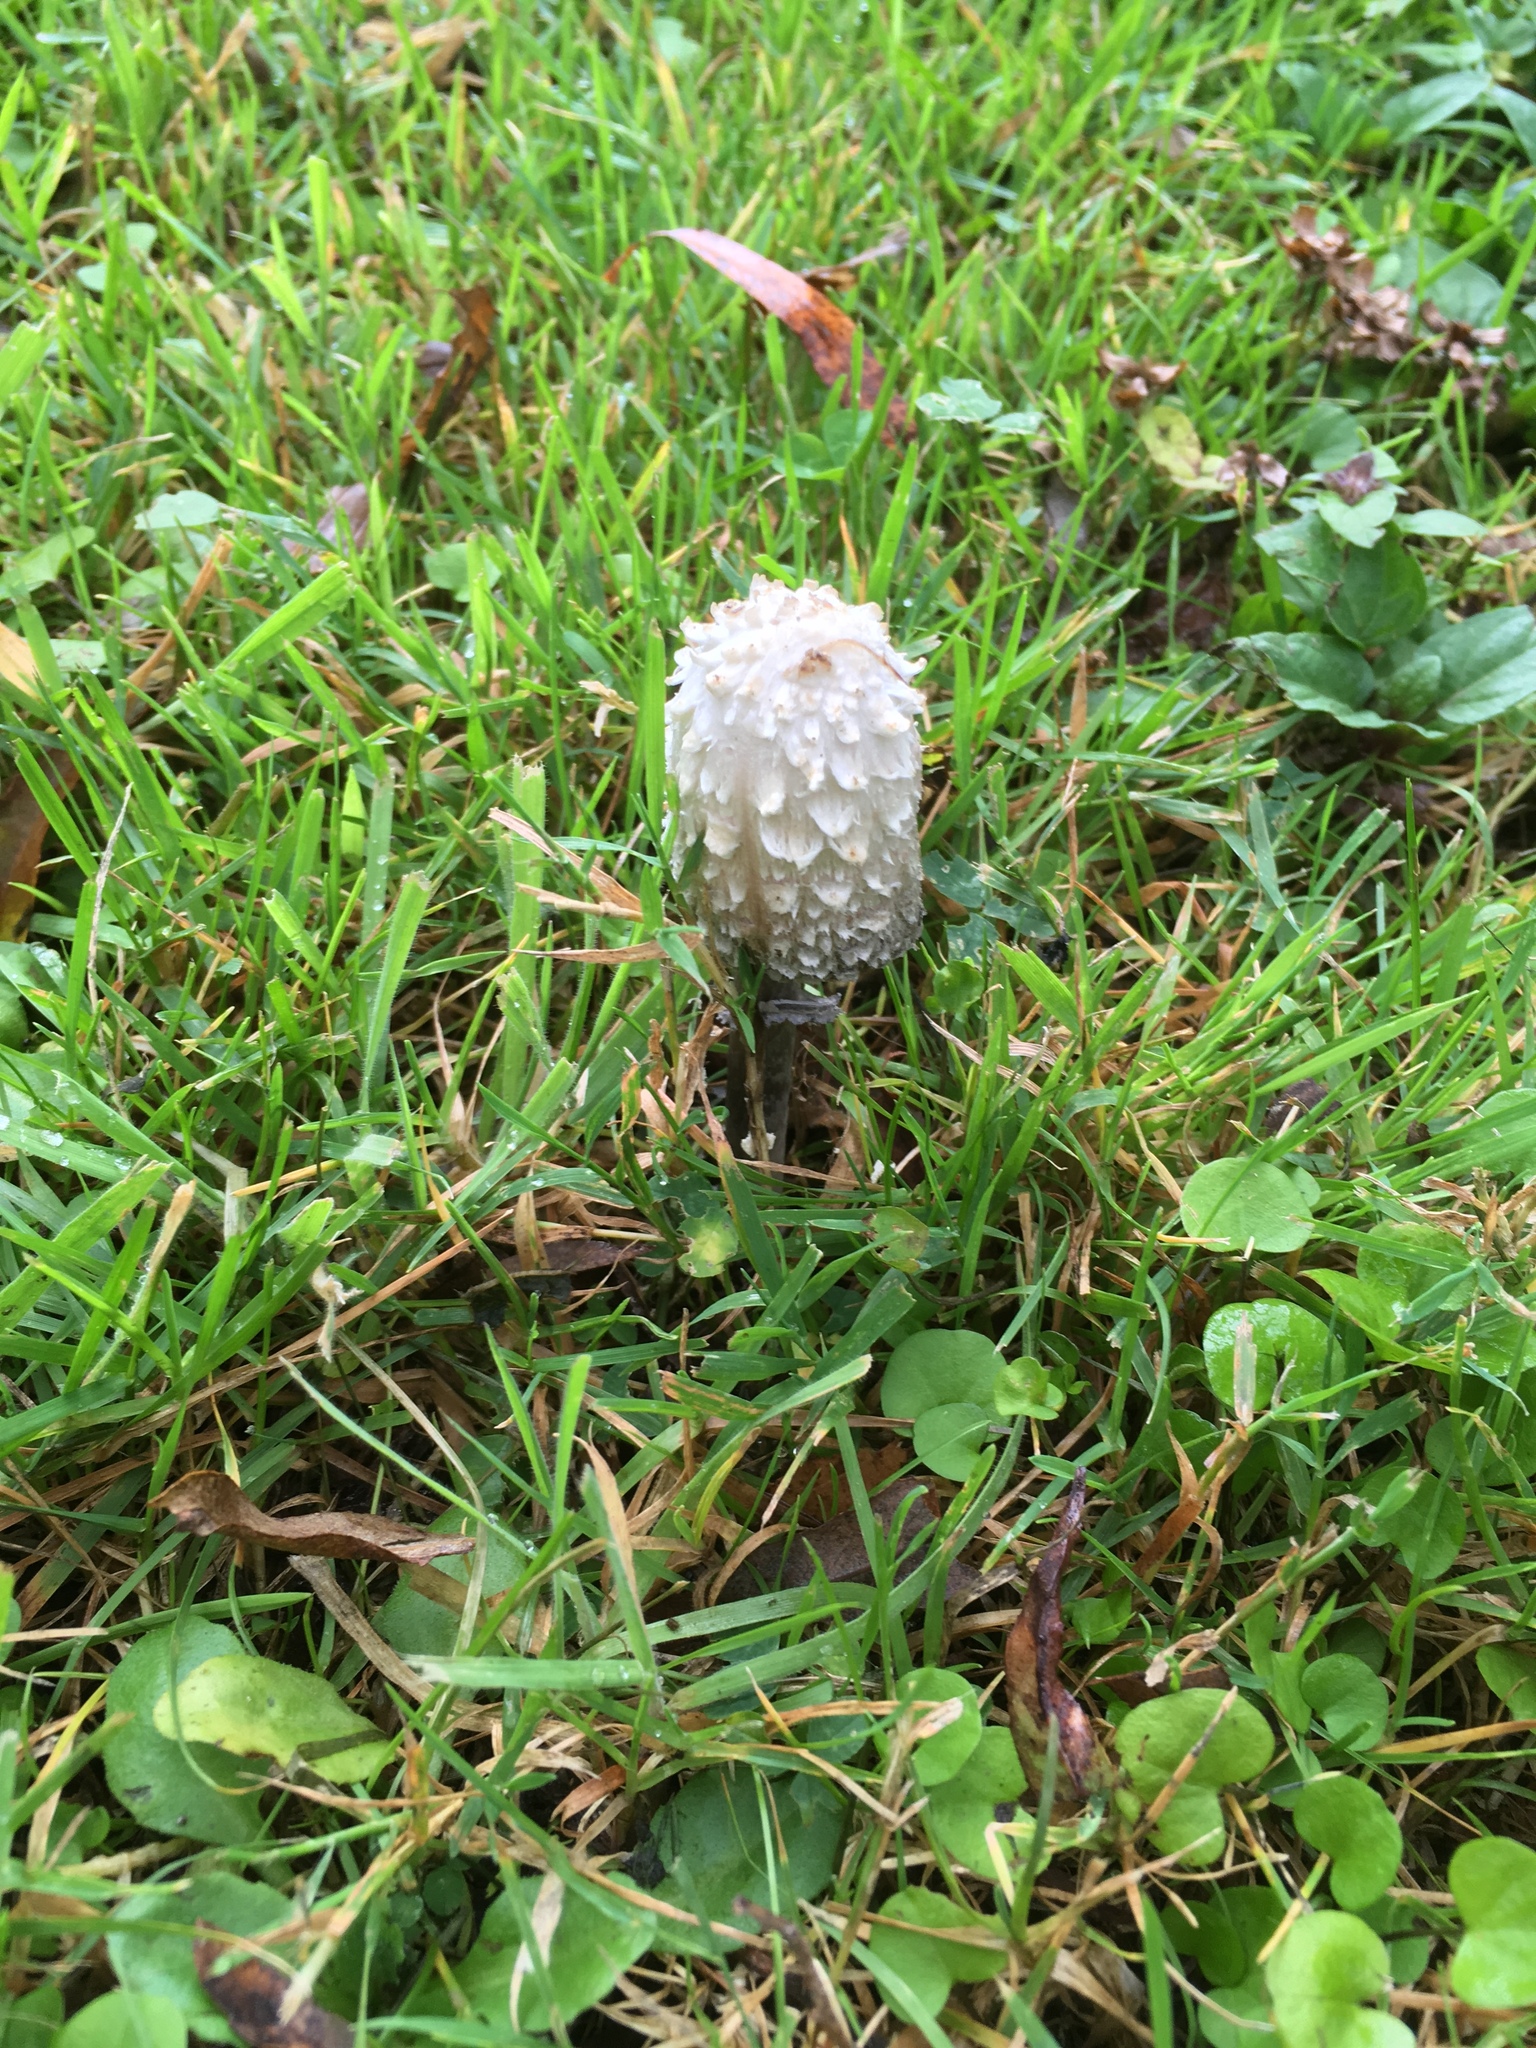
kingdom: Fungi
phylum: Basidiomycota
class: Agaricomycetes
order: Agaricales
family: Agaricaceae
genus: Coprinus
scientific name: Coprinus comatus
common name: Lawyer's wig
